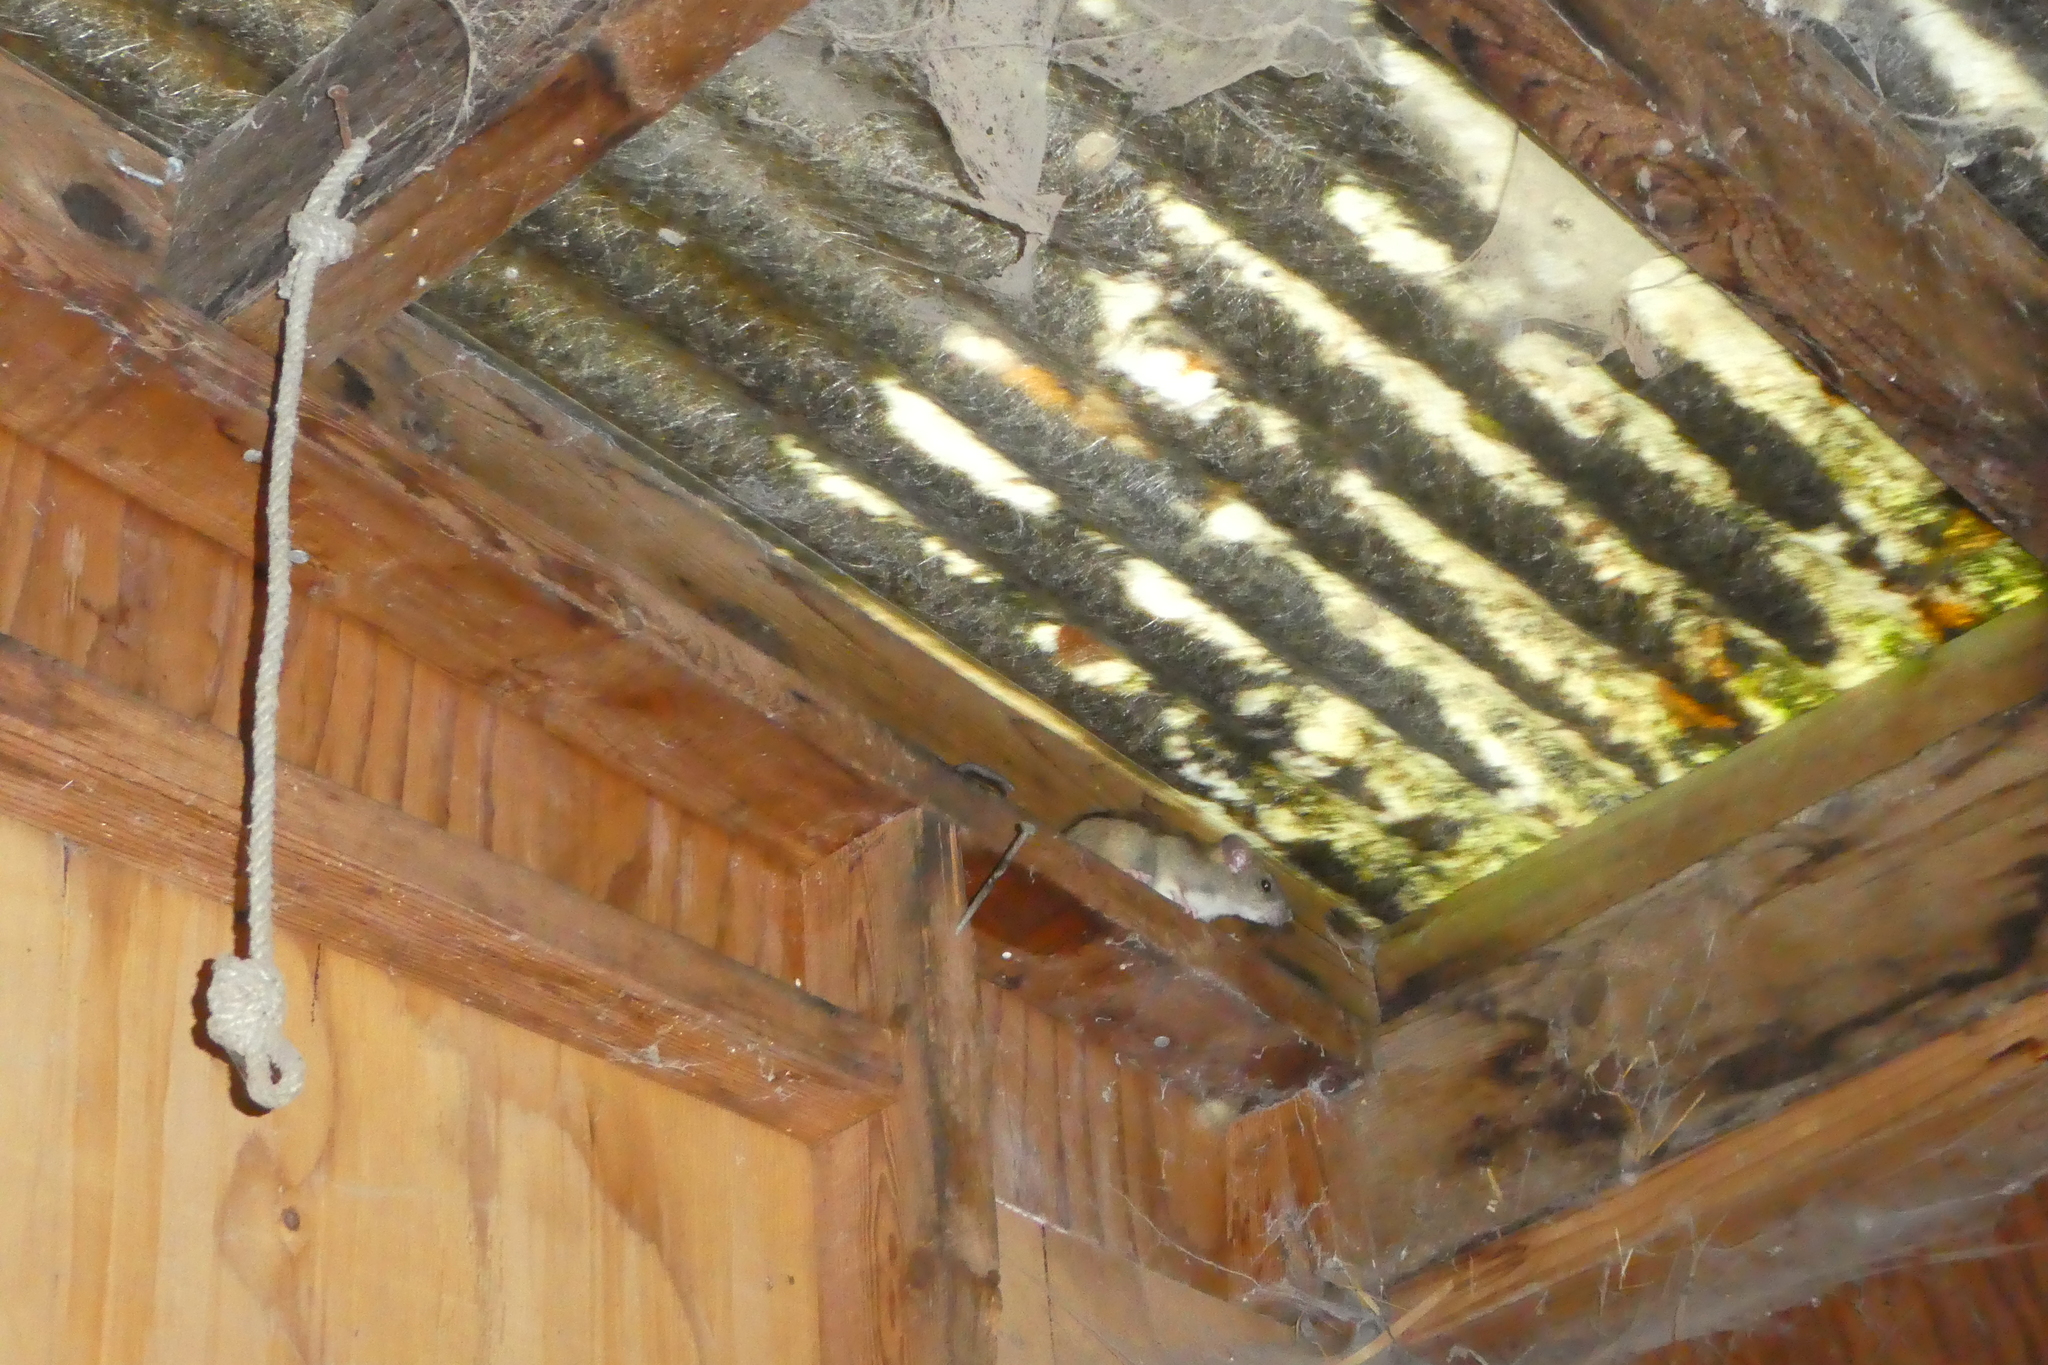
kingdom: Animalia
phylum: Chordata
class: Mammalia
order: Rodentia
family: Cricetidae
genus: Neotoma
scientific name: Neotoma cinerea
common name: Bushy-tailed woodrat
